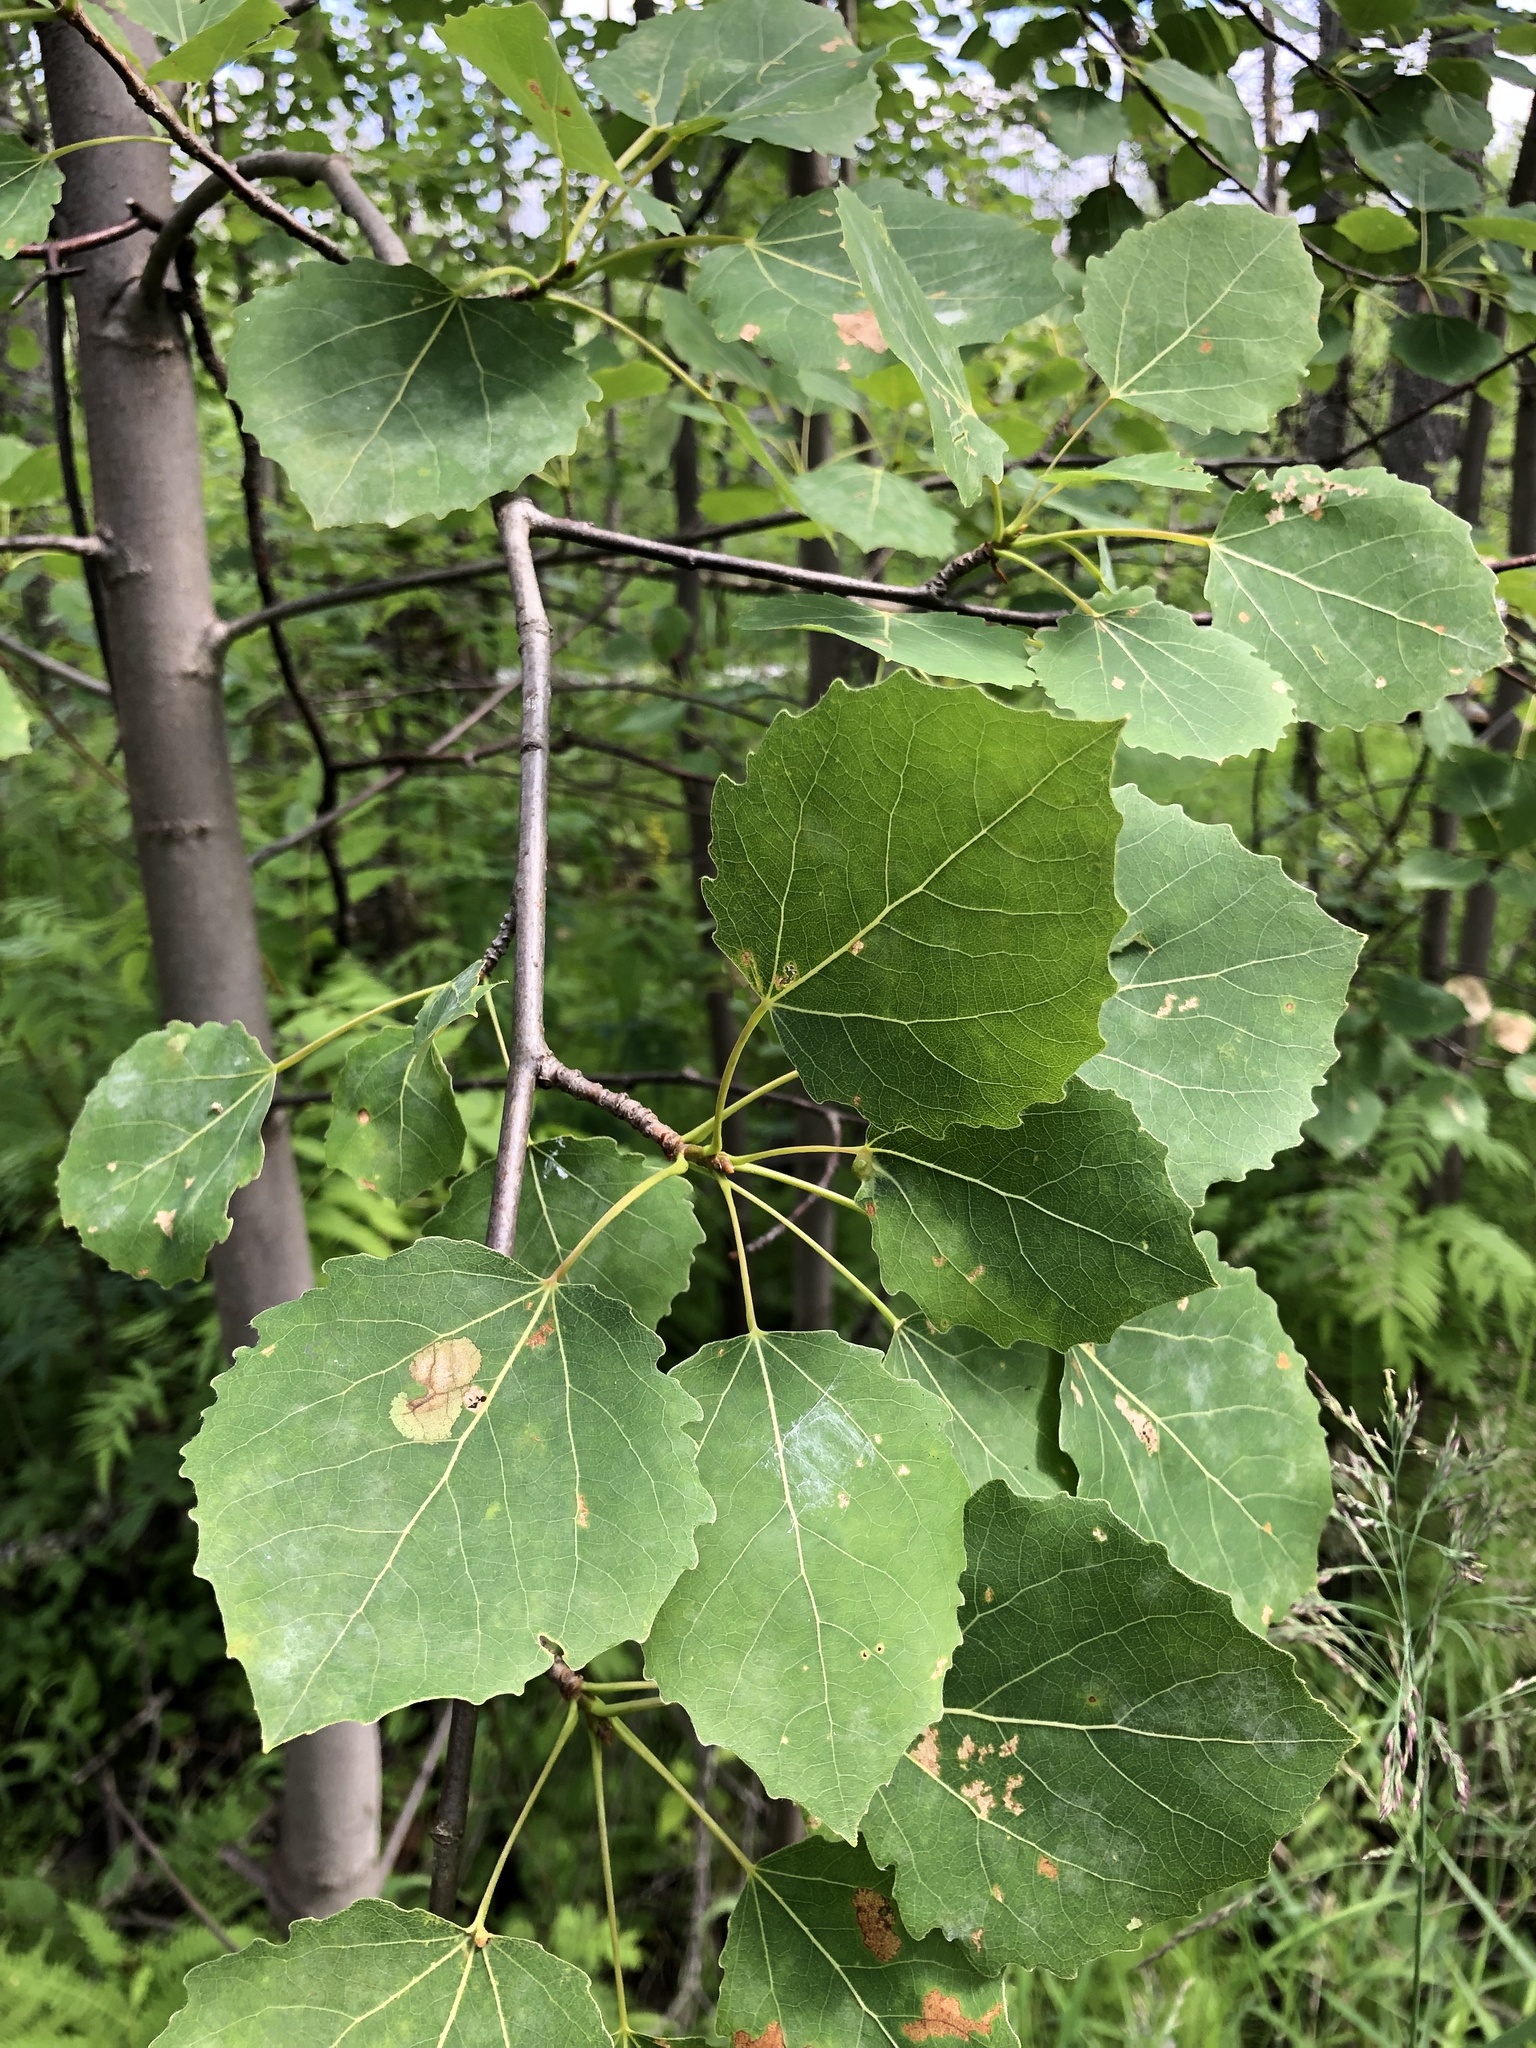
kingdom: Plantae
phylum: Tracheophyta
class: Magnoliopsida
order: Malpighiales
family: Salicaceae
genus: Populus
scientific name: Populus tremula
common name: European aspen
